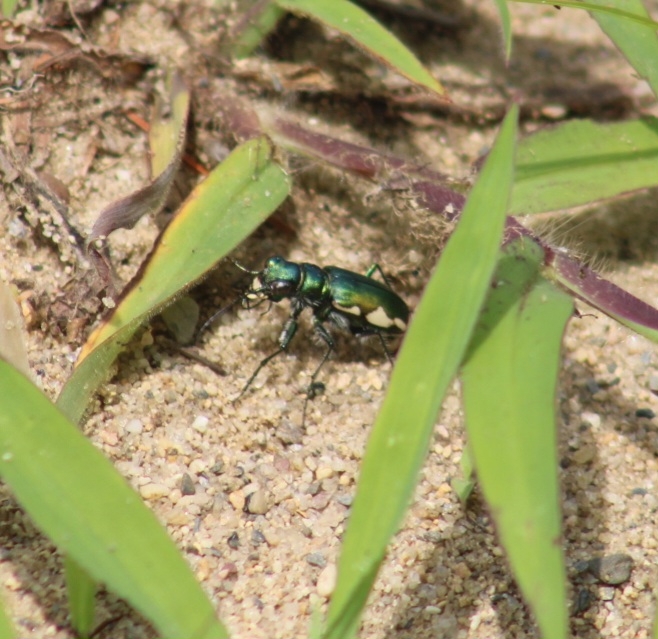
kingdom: Animalia
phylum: Arthropoda
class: Insecta
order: Coleoptera
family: Carabidae
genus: Cicindela
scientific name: Cicindela scutellaris
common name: Festive tiger beetle
